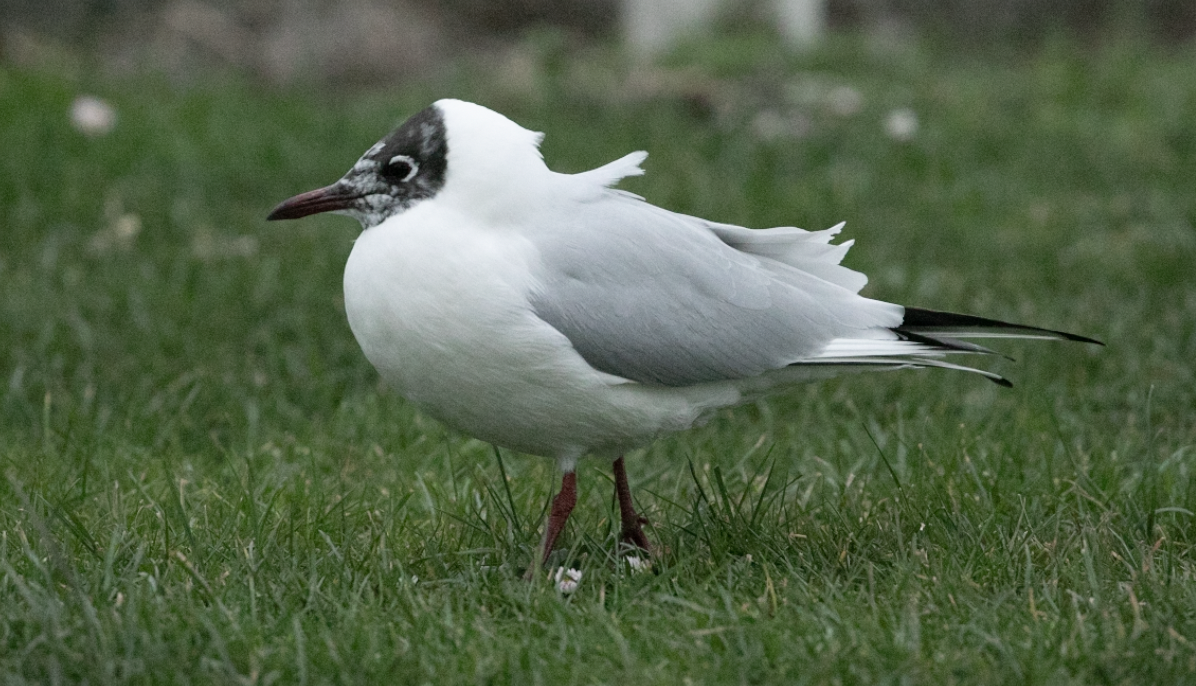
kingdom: Animalia
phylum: Chordata
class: Aves
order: Charadriiformes
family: Laridae
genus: Chroicocephalus
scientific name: Chroicocephalus ridibundus
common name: Black-headed gull
